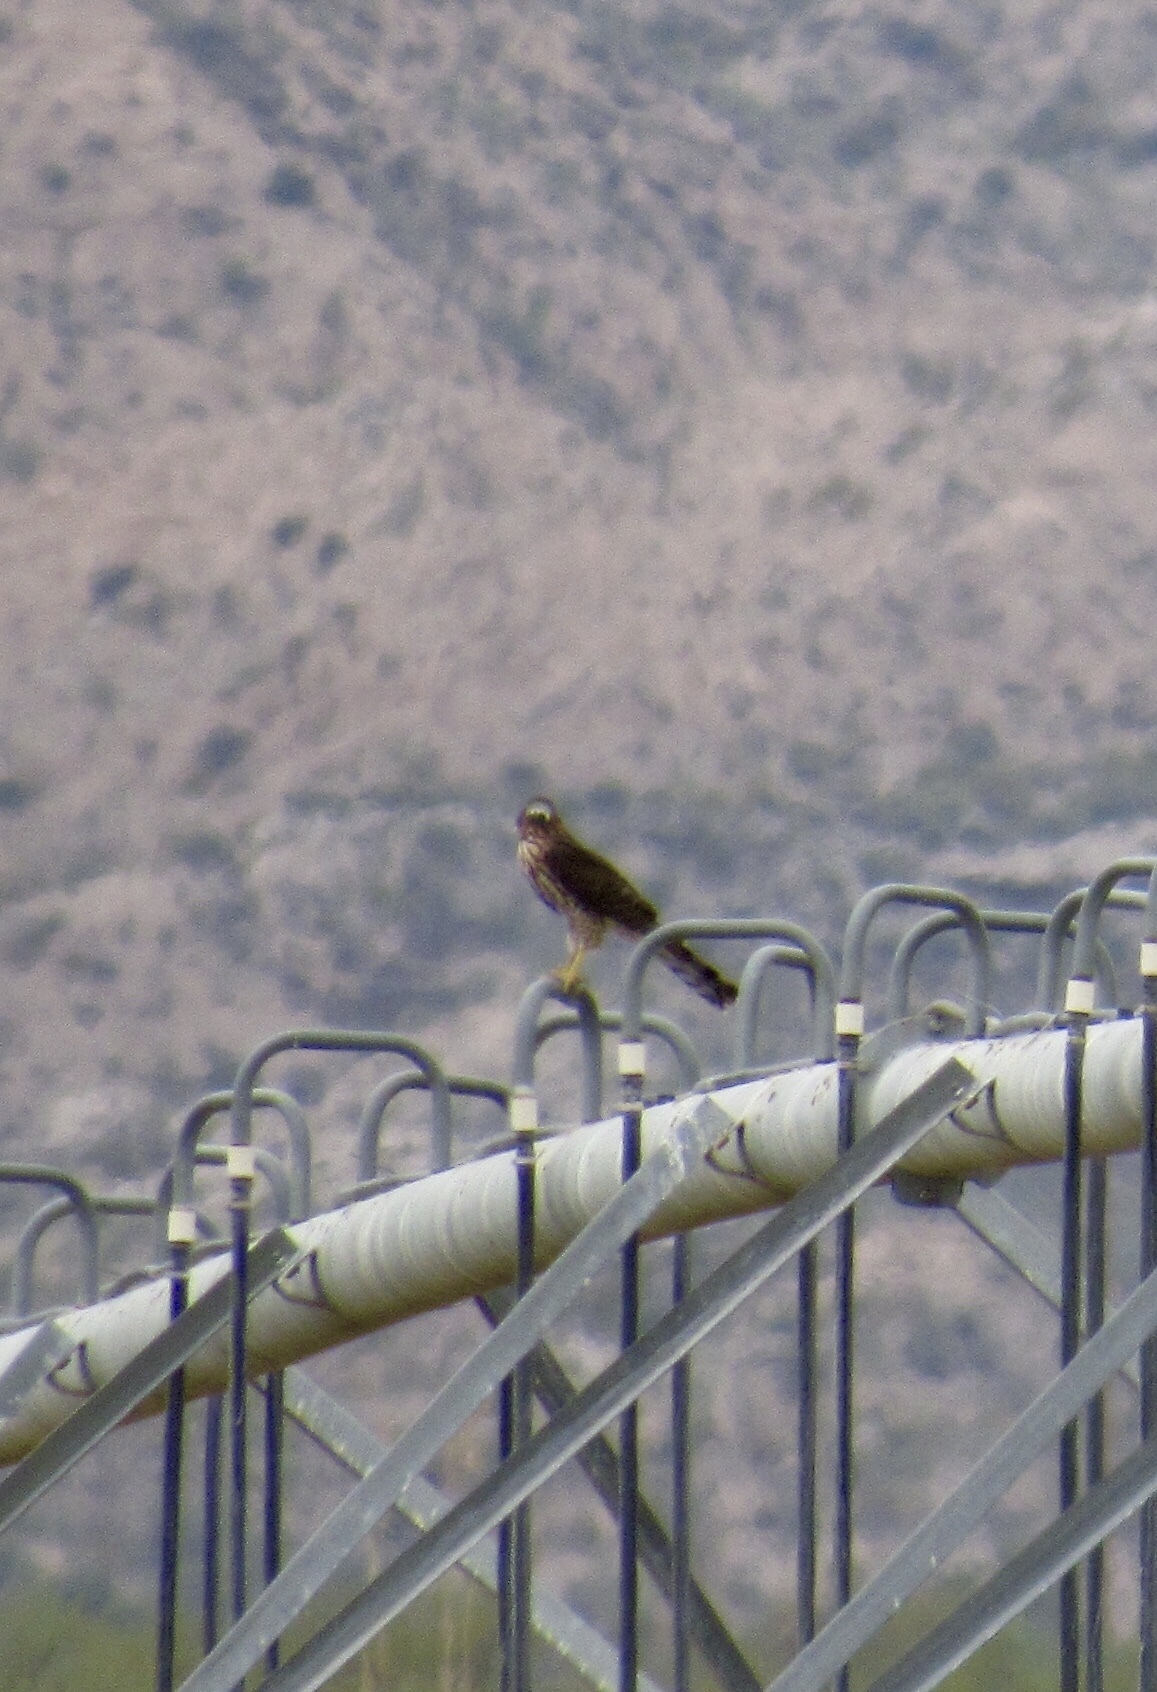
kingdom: Animalia
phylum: Chordata
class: Aves
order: Accipitriformes
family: Accipitridae
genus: Accipiter
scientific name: Accipiter cooperii
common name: Cooper's hawk
